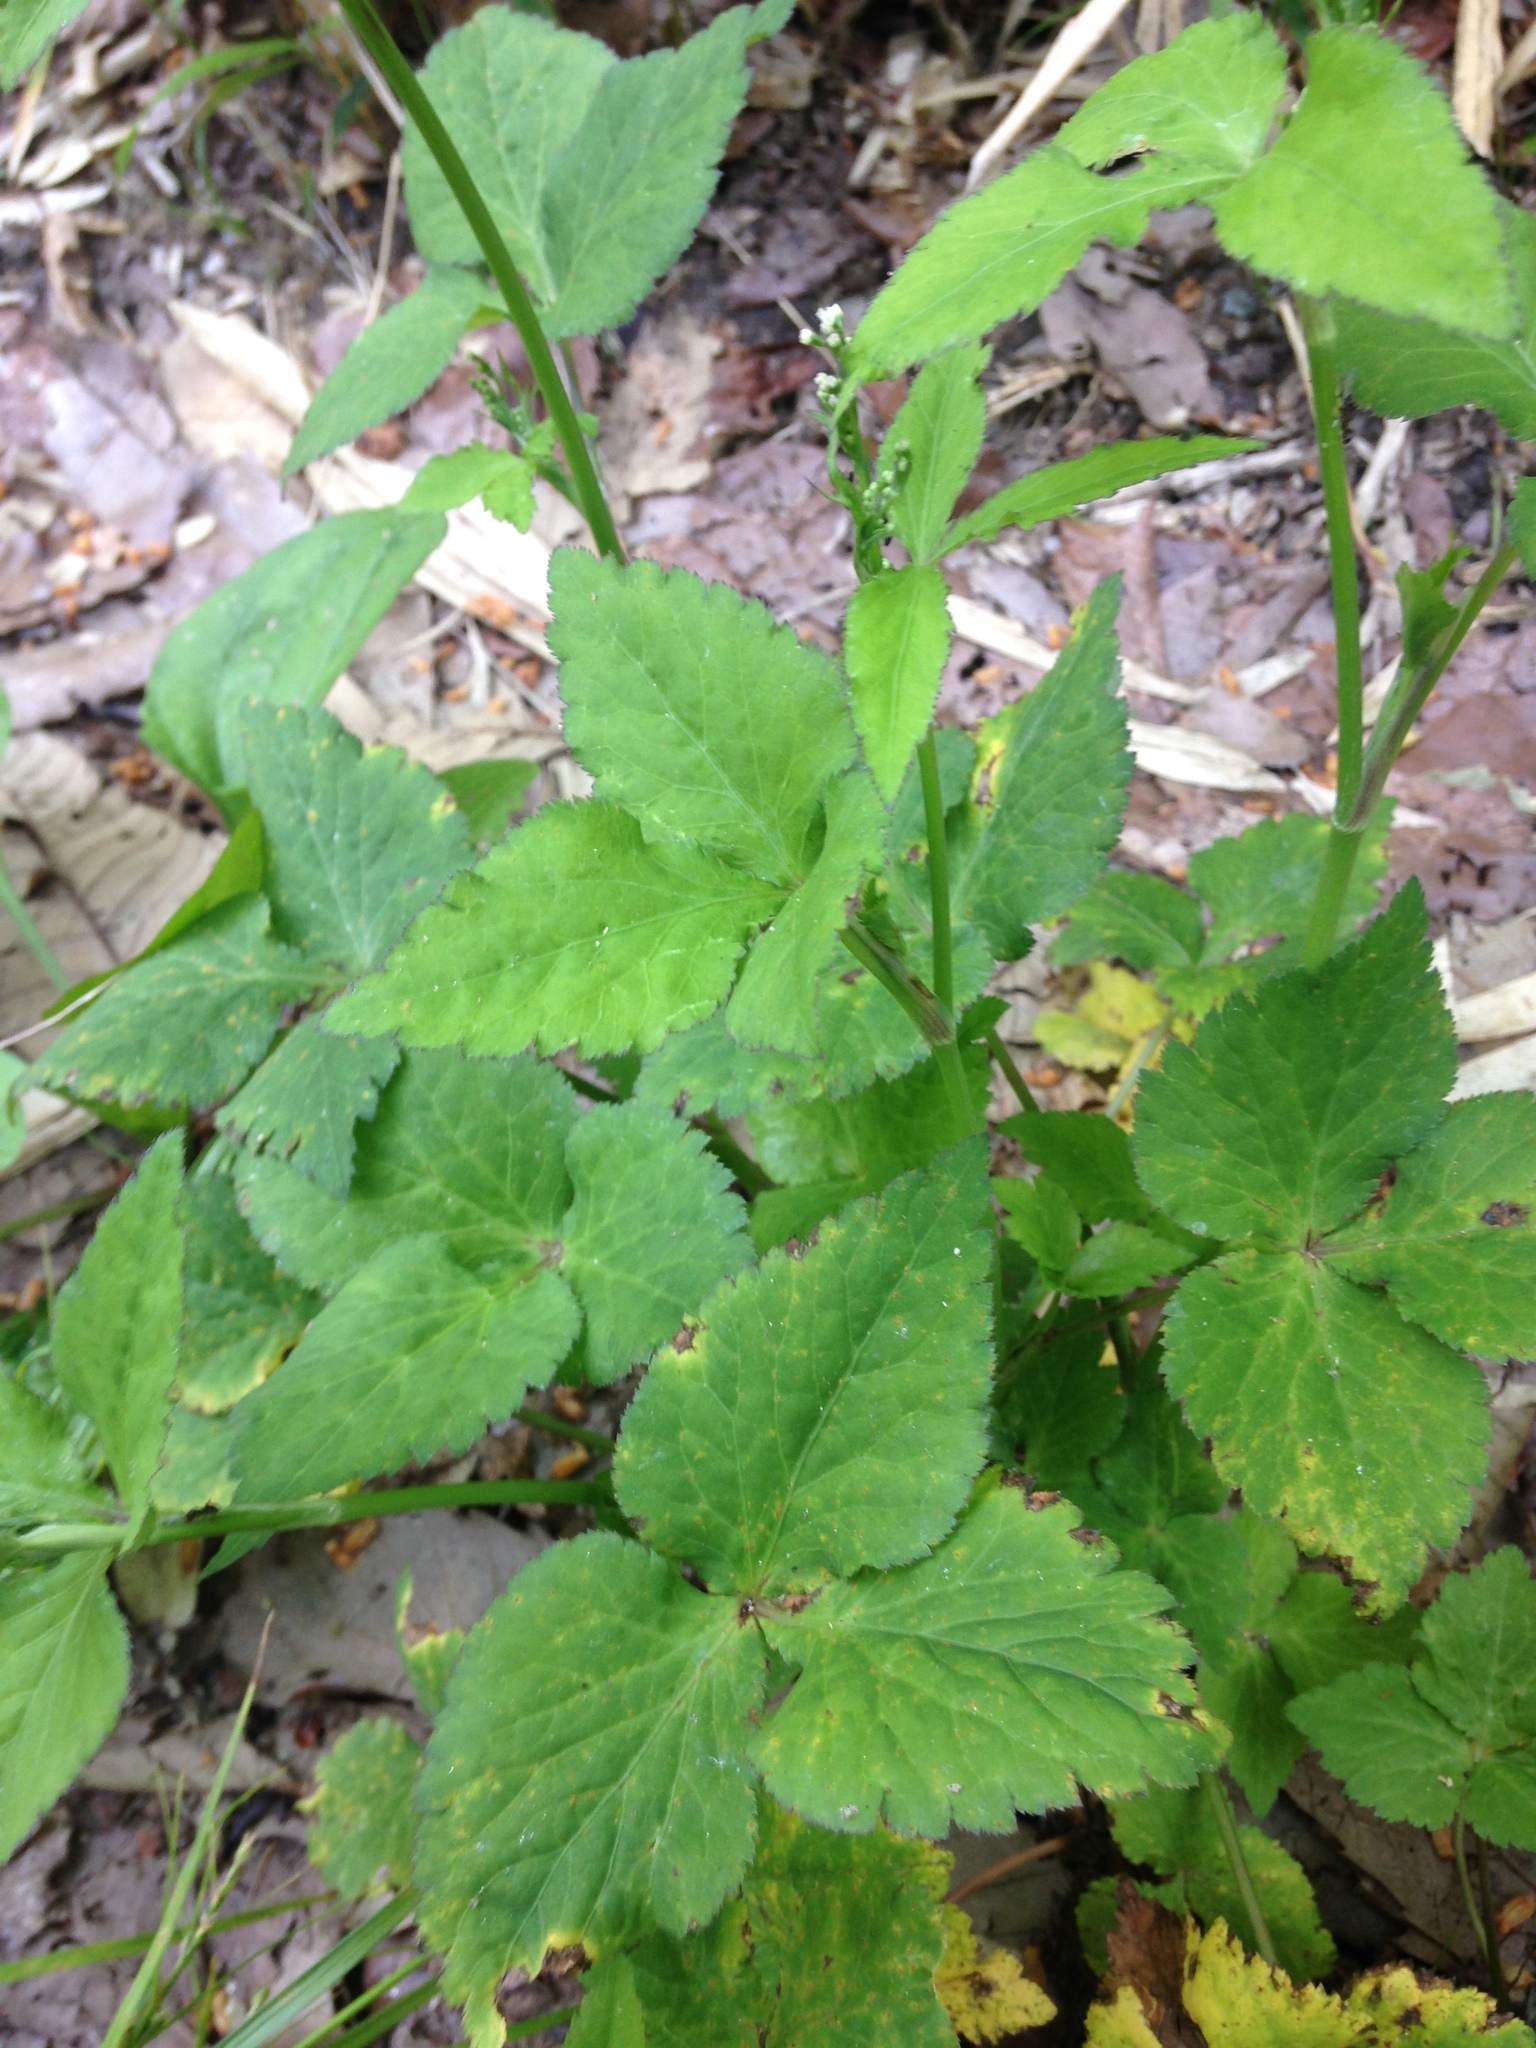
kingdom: Plantae
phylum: Tracheophyta
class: Magnoliopsida
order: Apiales
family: Apiaceae
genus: Cryptotaenia
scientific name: Cryptotaenia japonica
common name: Japanese cryptotaenia
